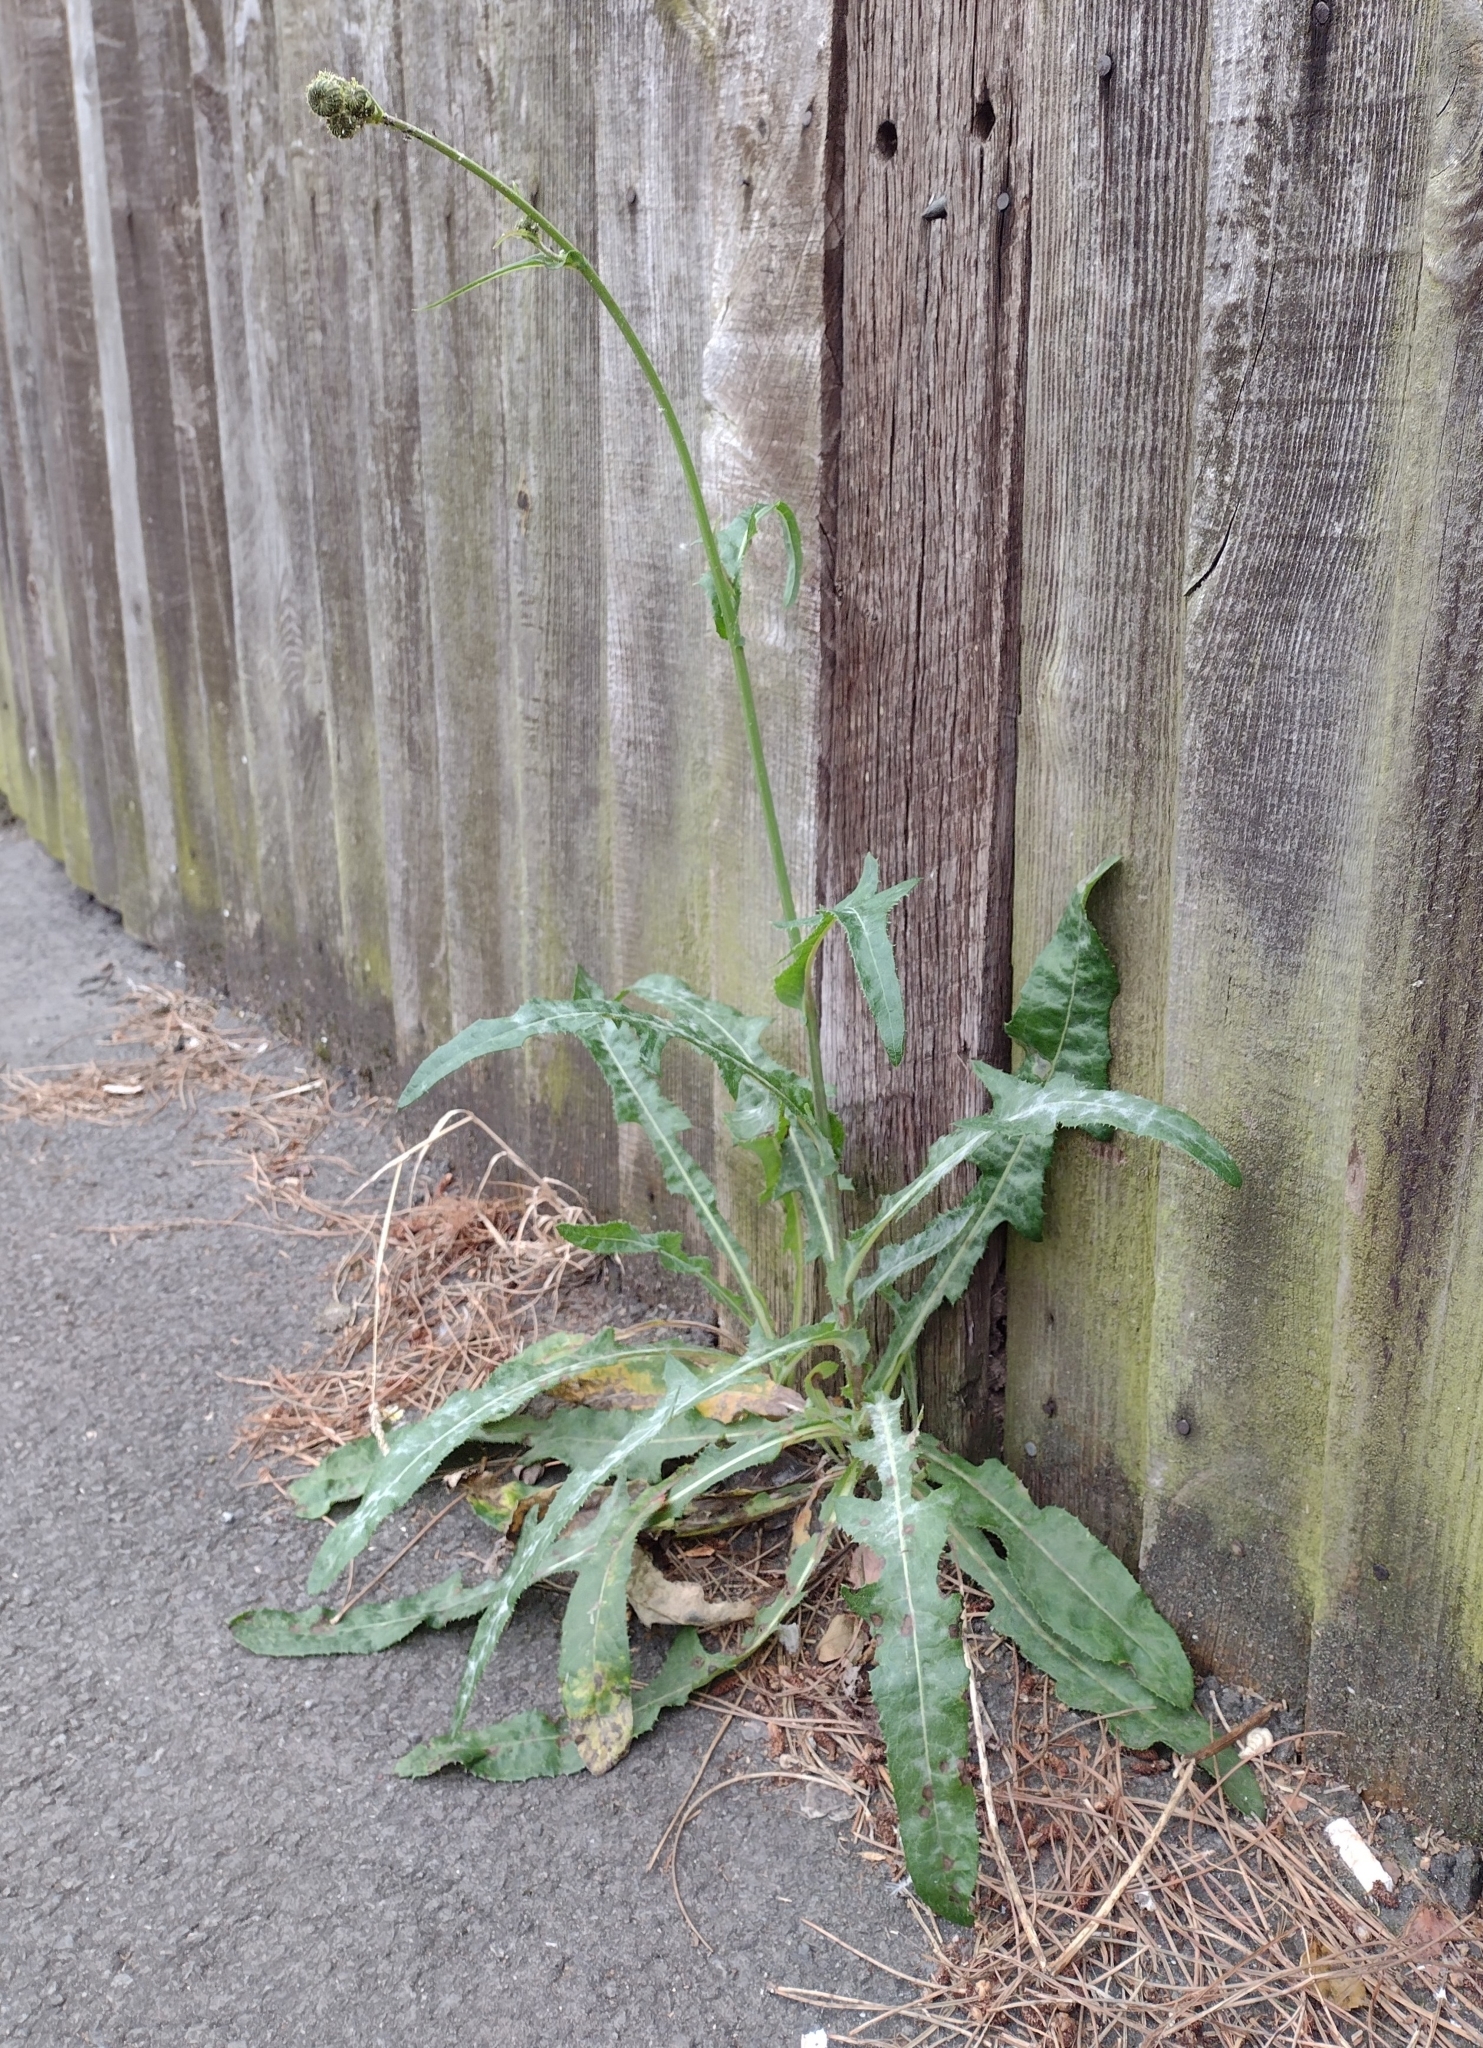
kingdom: Plantae
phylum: Tracheophyta
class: Magnoliopsida
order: Asterales
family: Asteraceae
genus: Sonchus
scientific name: Sonchus arvensis
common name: Perennial sow-thistle
